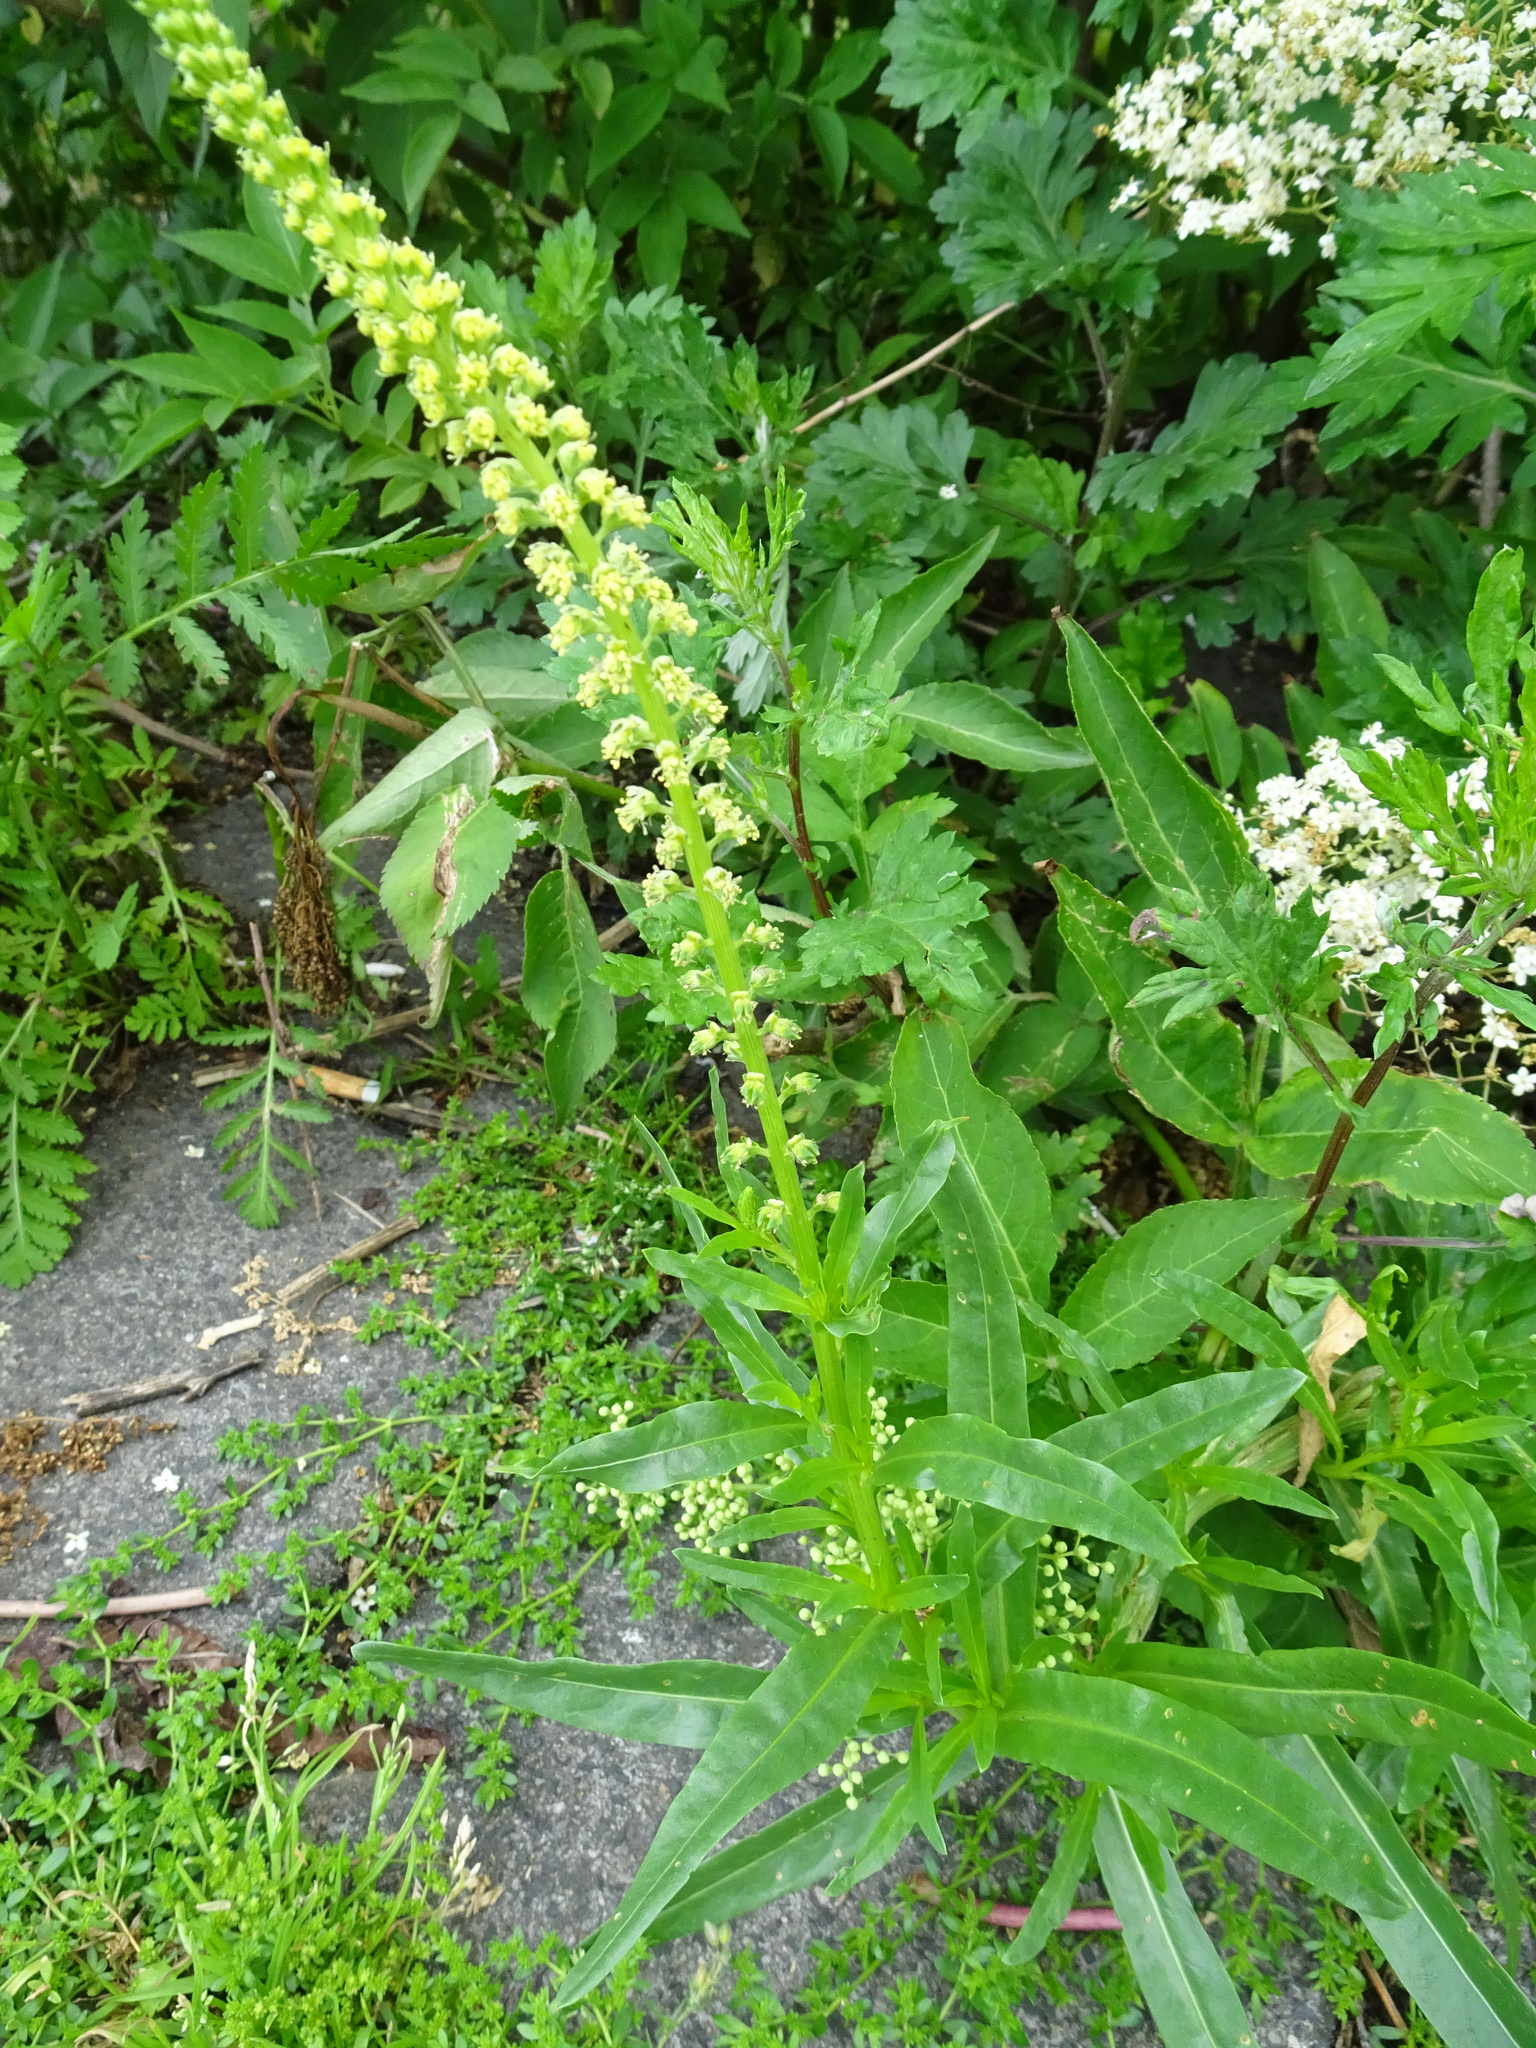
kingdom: Plantae
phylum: Tracheophyta
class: Magnoliopsida
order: Brassicales
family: Resedaceae
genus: Reseda
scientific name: Reseda luteola
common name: Weld
